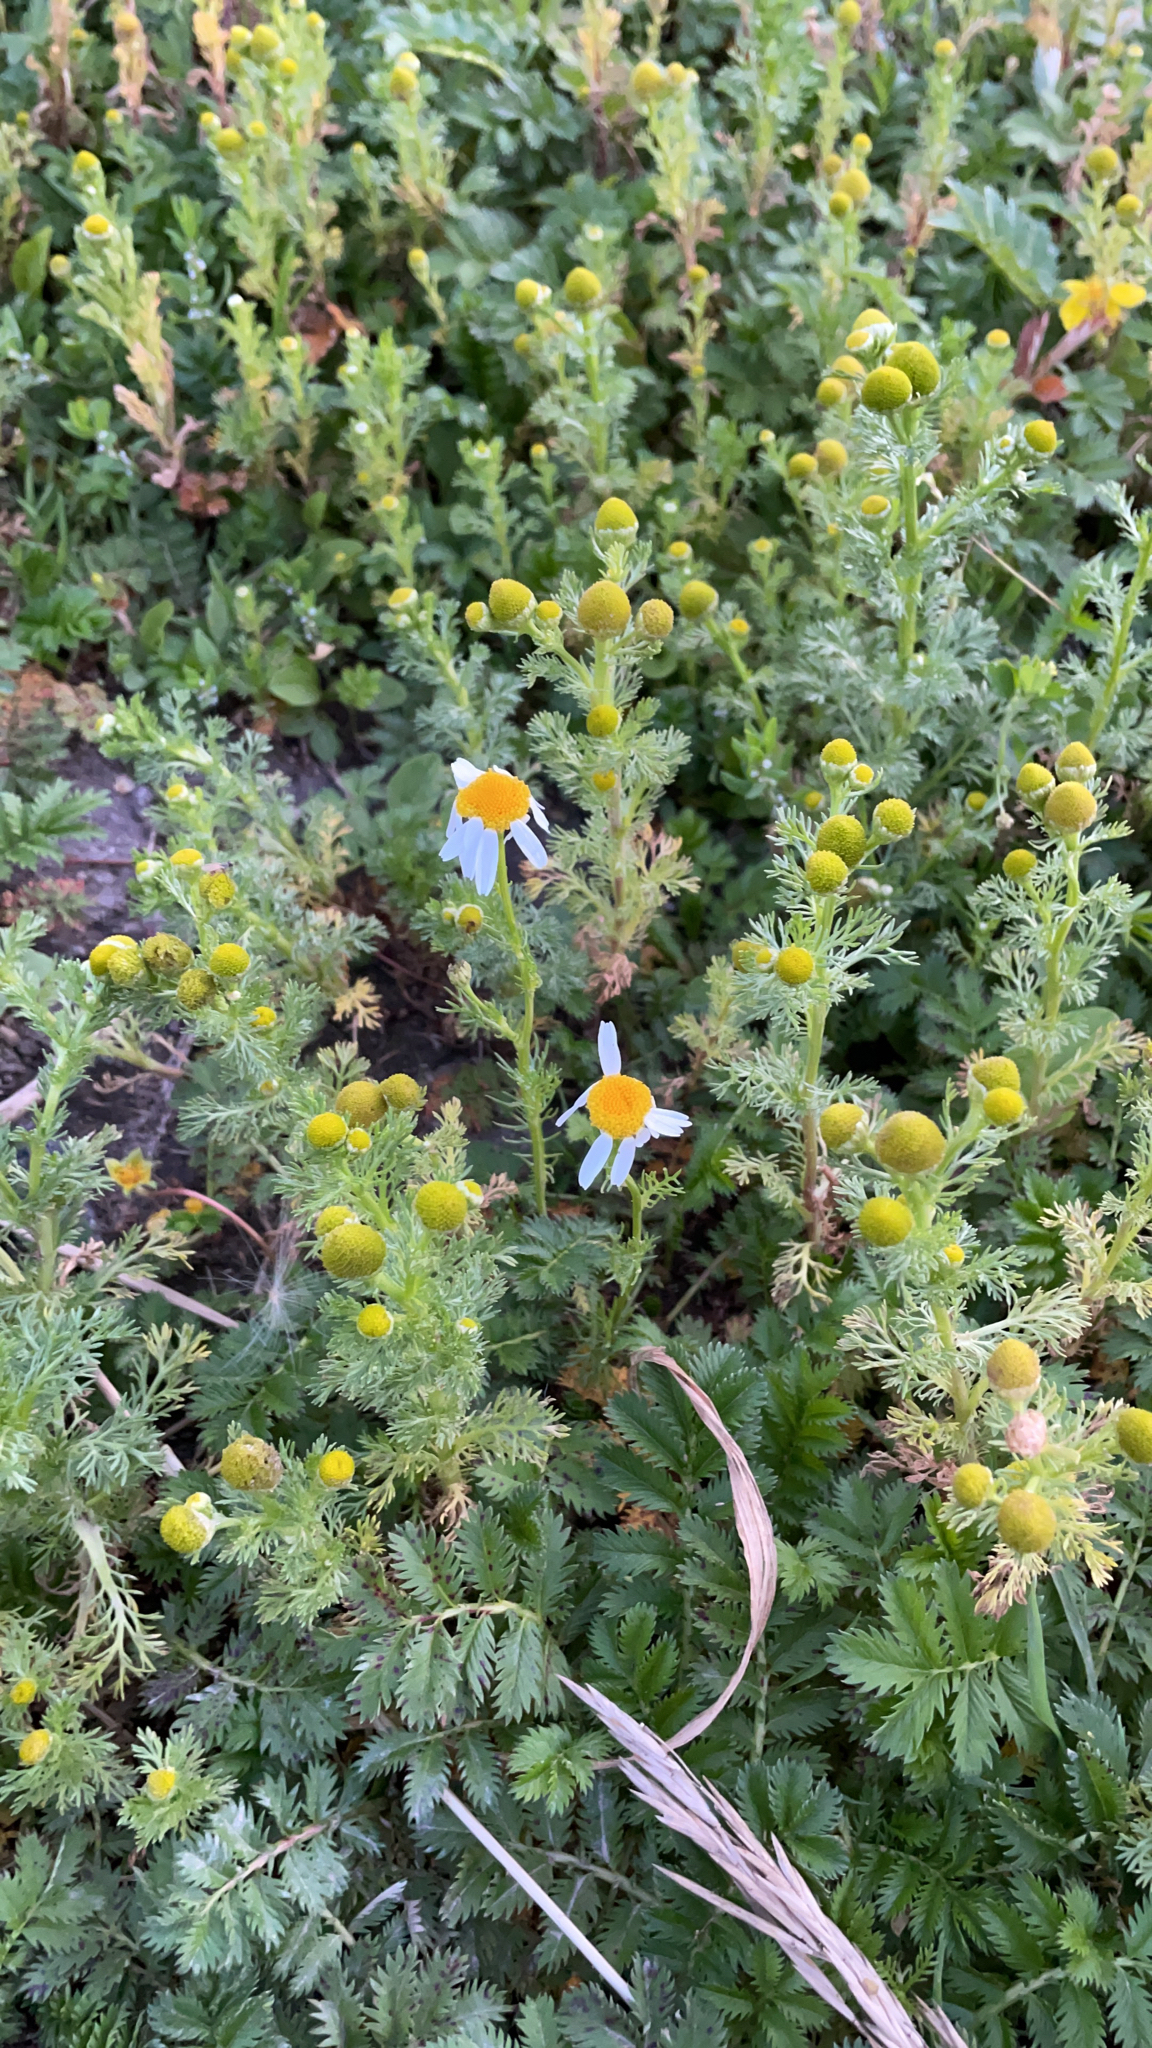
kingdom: Plantae
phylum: Tracheophyta
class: Magnoliopsida
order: Asterales
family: Asteraceae
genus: Matricaria
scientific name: Matricaria discoidea
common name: Disc mayweed
